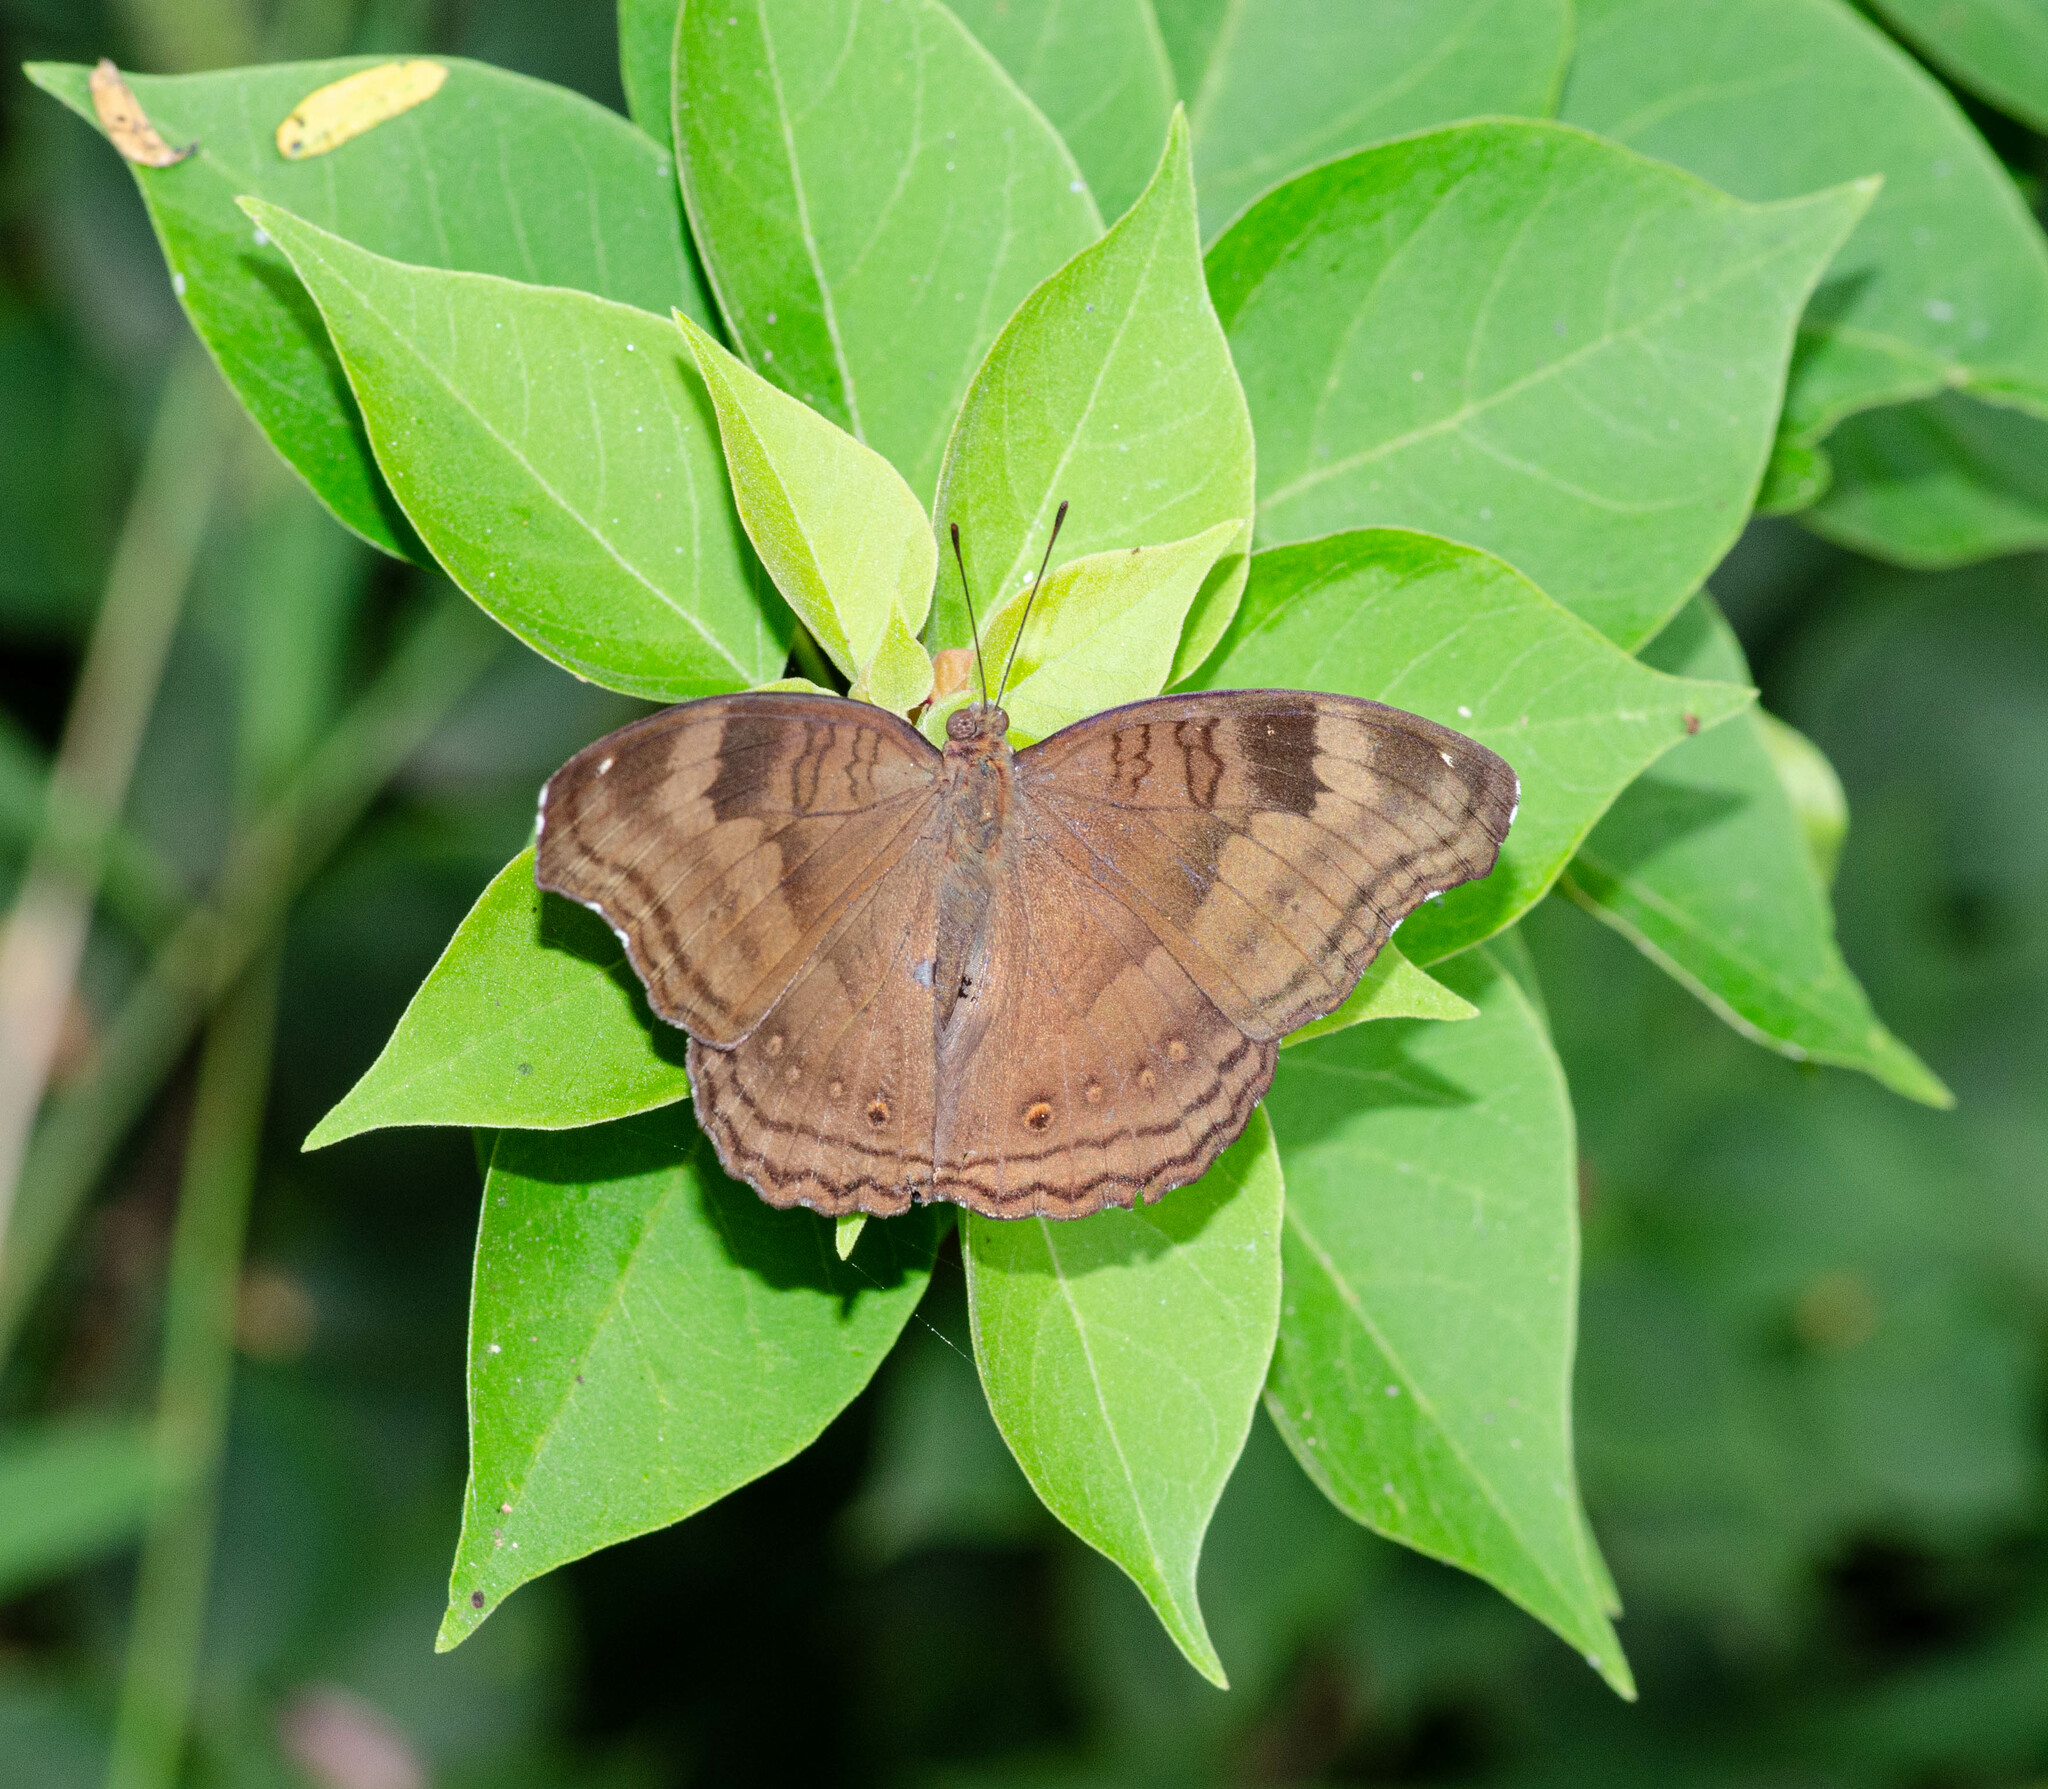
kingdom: Animalia
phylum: Arthropoda
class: Insecta
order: Lepidoptera
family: Nymphalidae
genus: Junonia
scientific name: Junonia iphita
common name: Chocolate pansy
